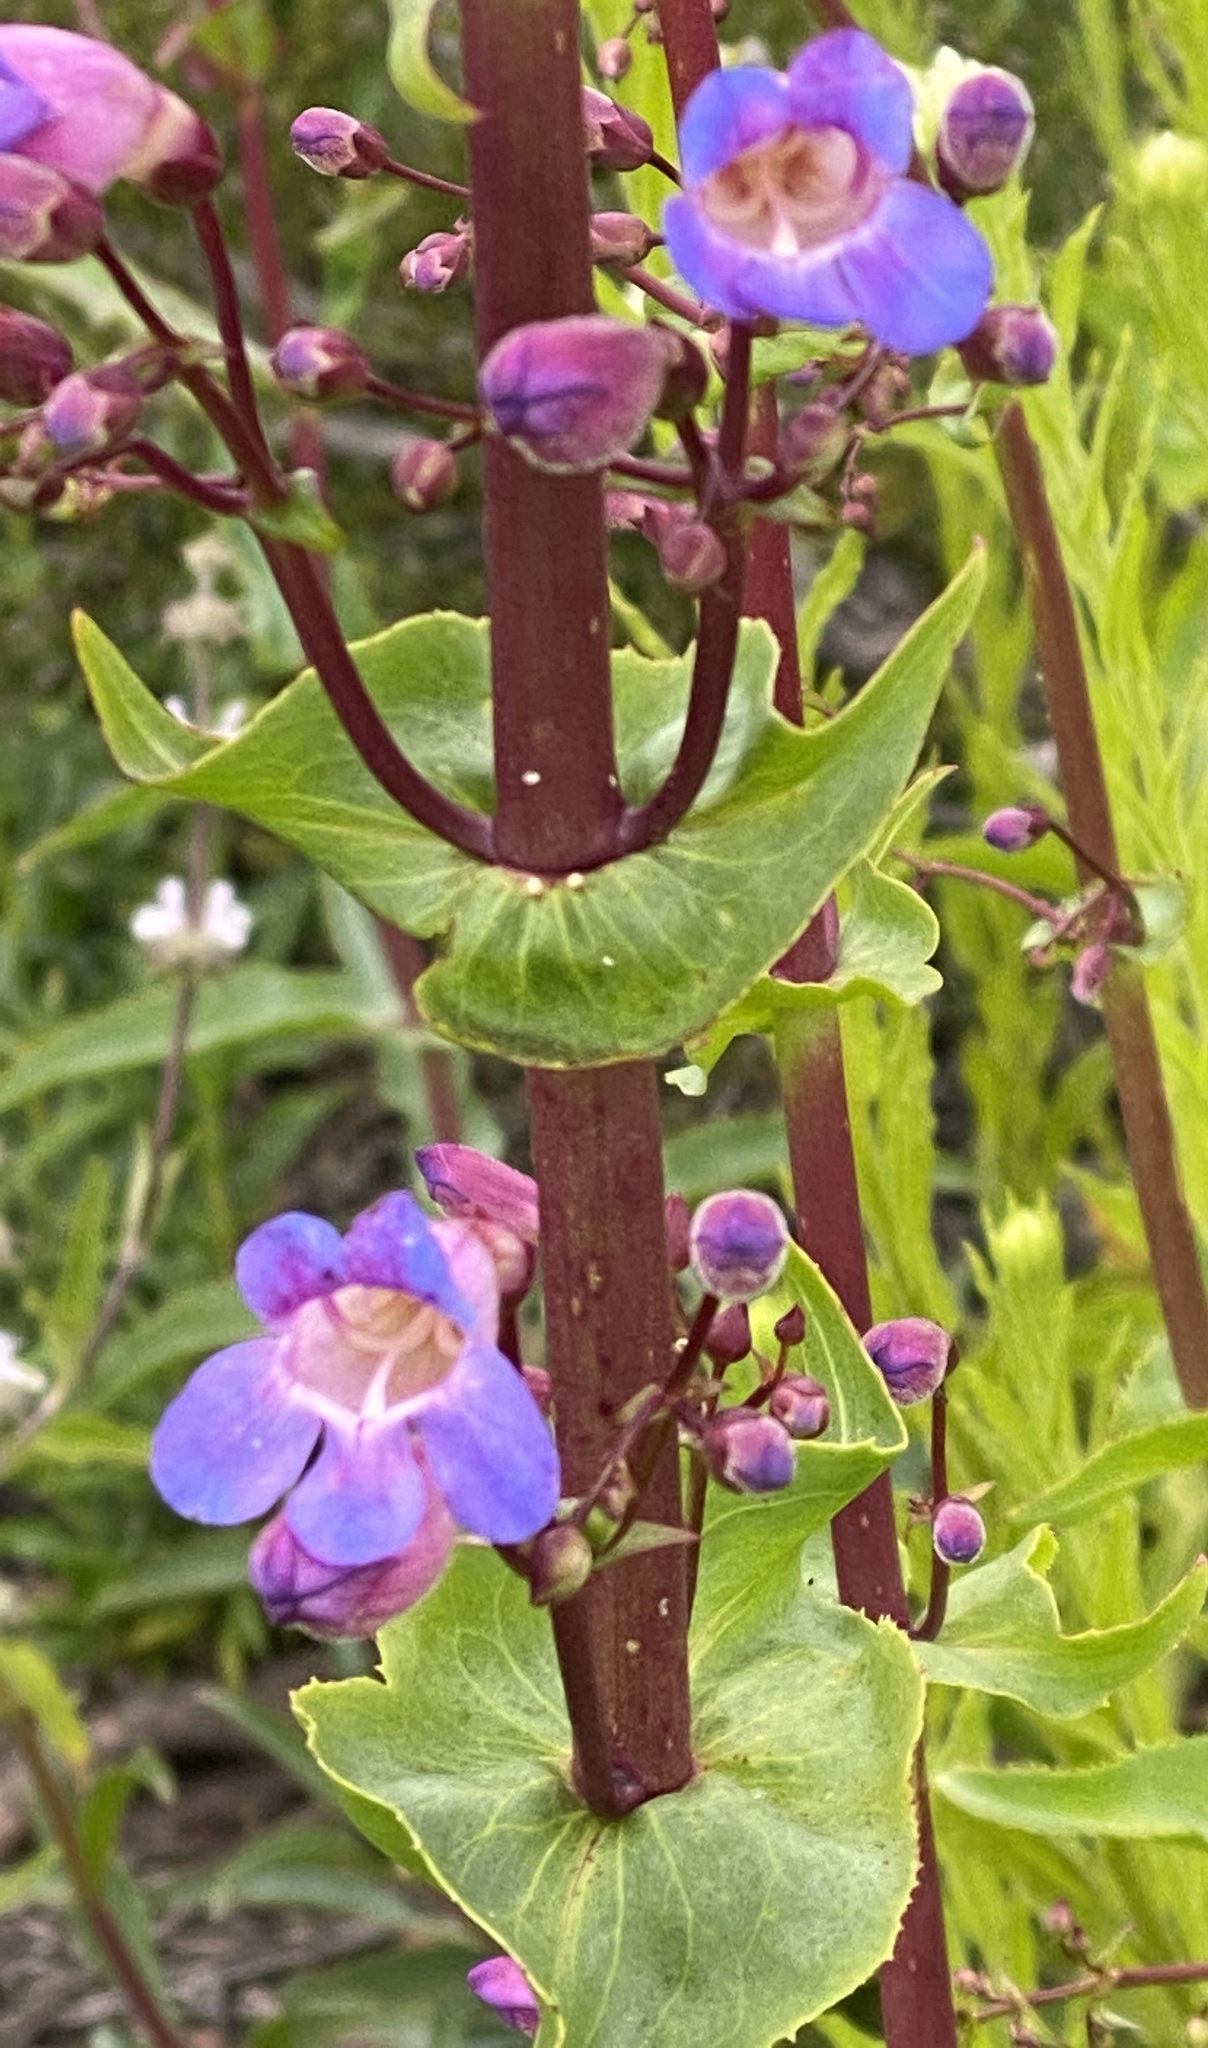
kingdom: Plantae
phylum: Tracheophyta
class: Magnoliopsida
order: Lamiales
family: Plantaginaceae
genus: Penstemon
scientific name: Penstemon spectabilis
